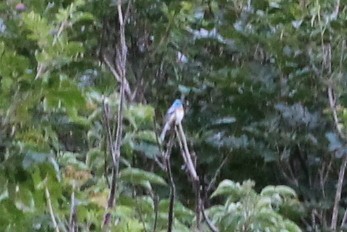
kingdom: Animalia
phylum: Chordata
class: Aves
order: Passeriformes
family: Cardinalidae
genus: Passerina
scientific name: Passerina amoena
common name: Lazuli bunting
